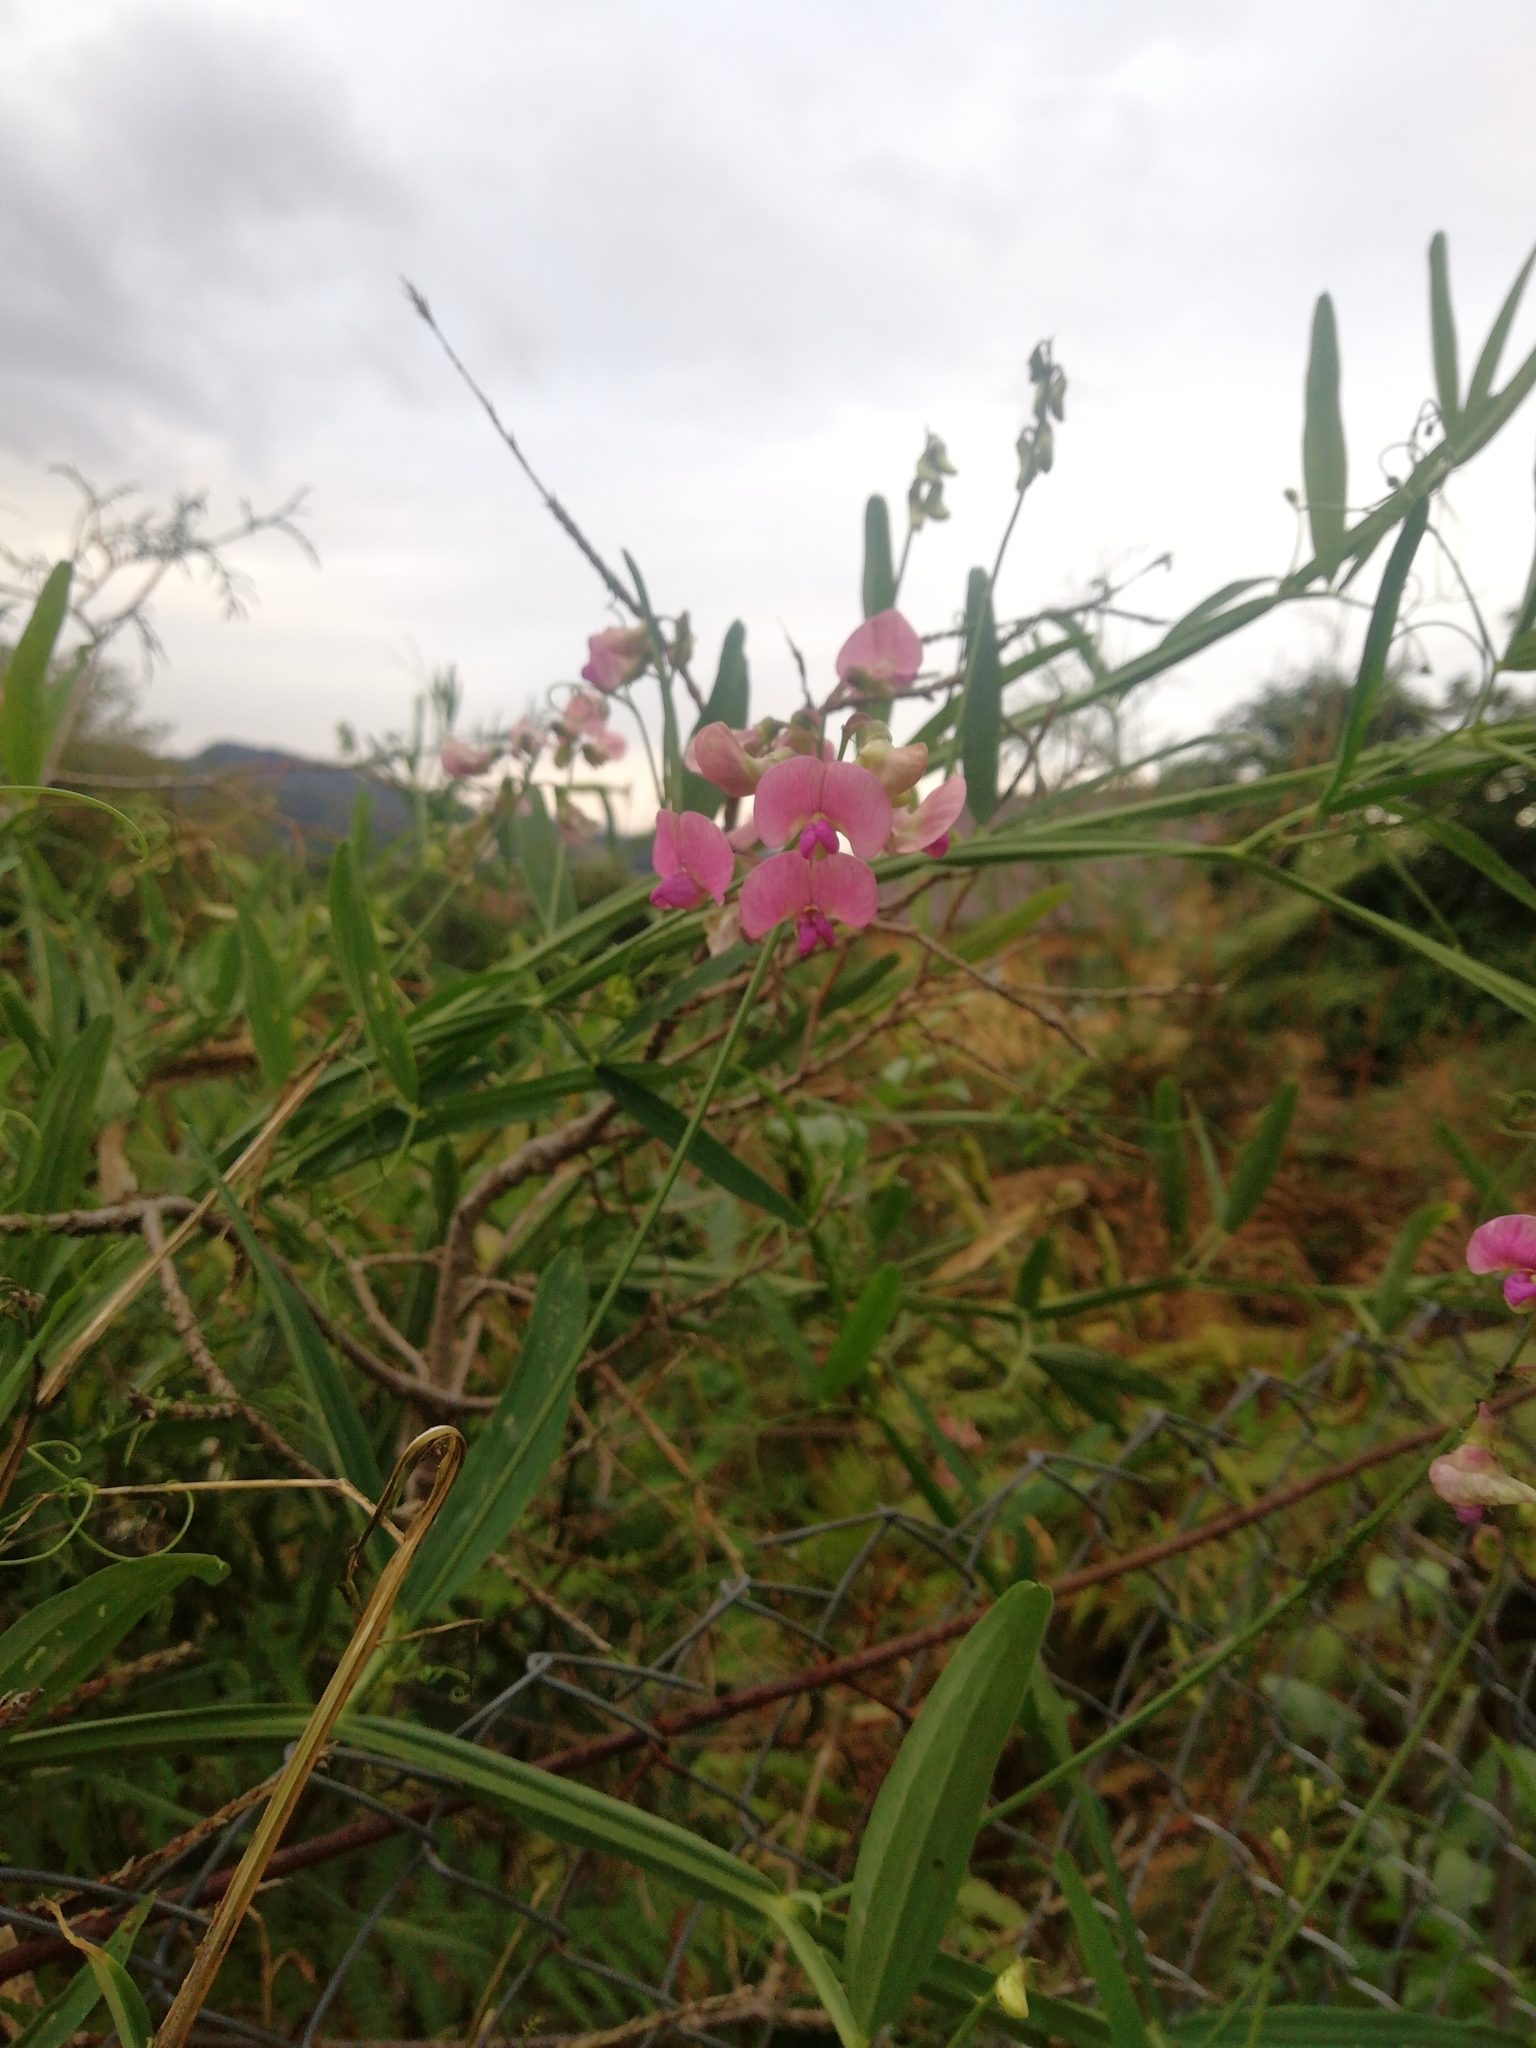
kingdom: Plantae
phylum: Tracheophyta
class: Magnoliopsida
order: Fabales
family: Fabaceae
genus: Lathyrus
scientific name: Lathyrus sylvestris
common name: Flat pea
